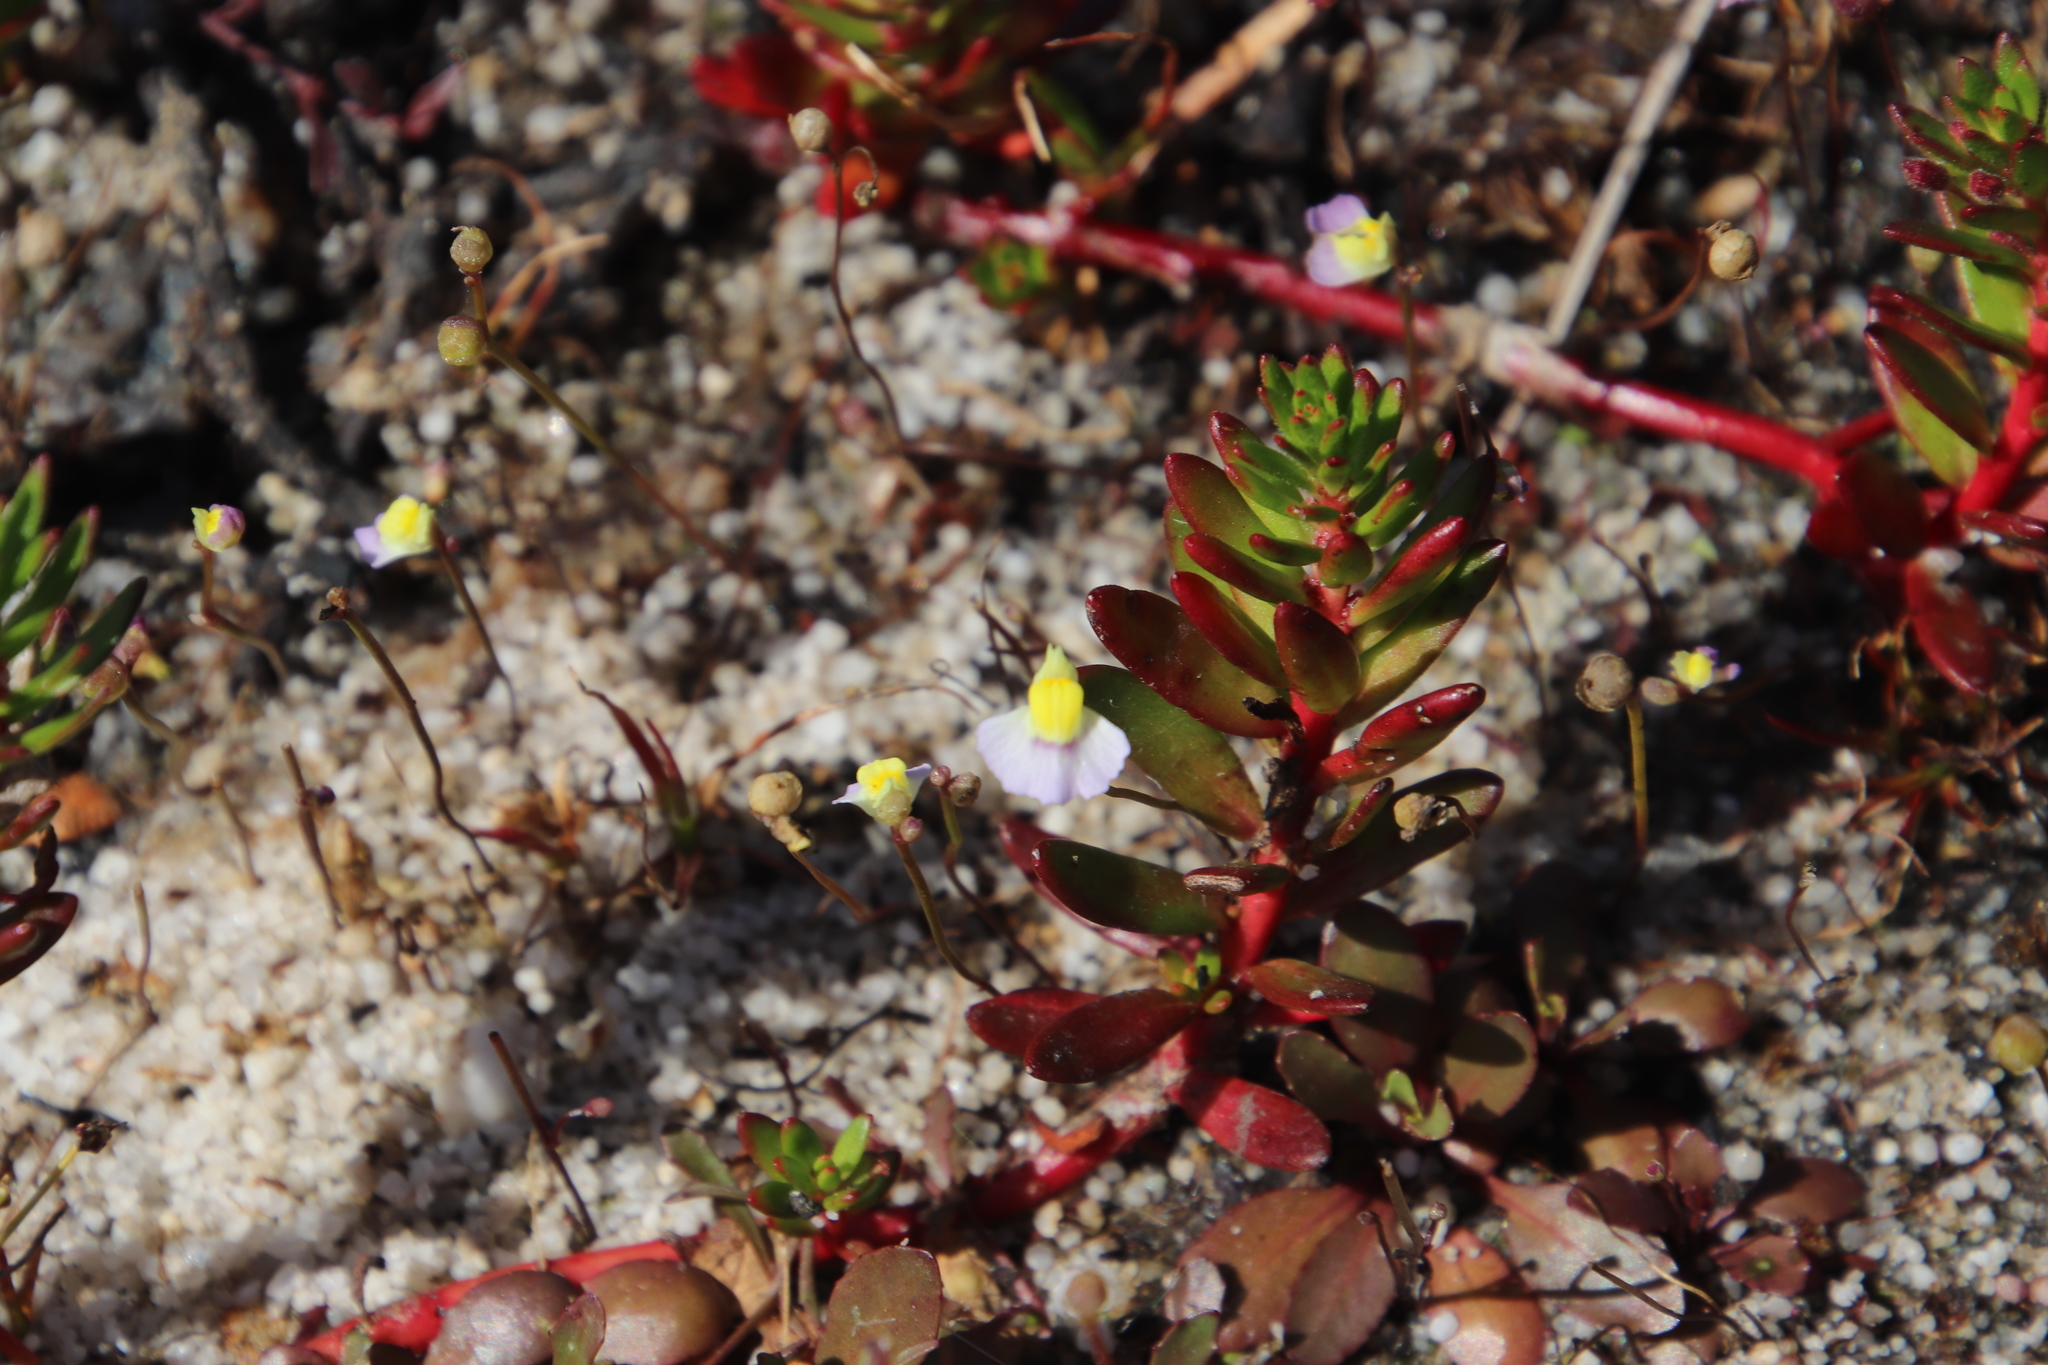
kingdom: Plantae
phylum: Tracheophyta
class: Magnoliopsida
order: Lamiales
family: Lentibulariaceae
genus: Utricularia
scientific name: Utricularia bisquamata
